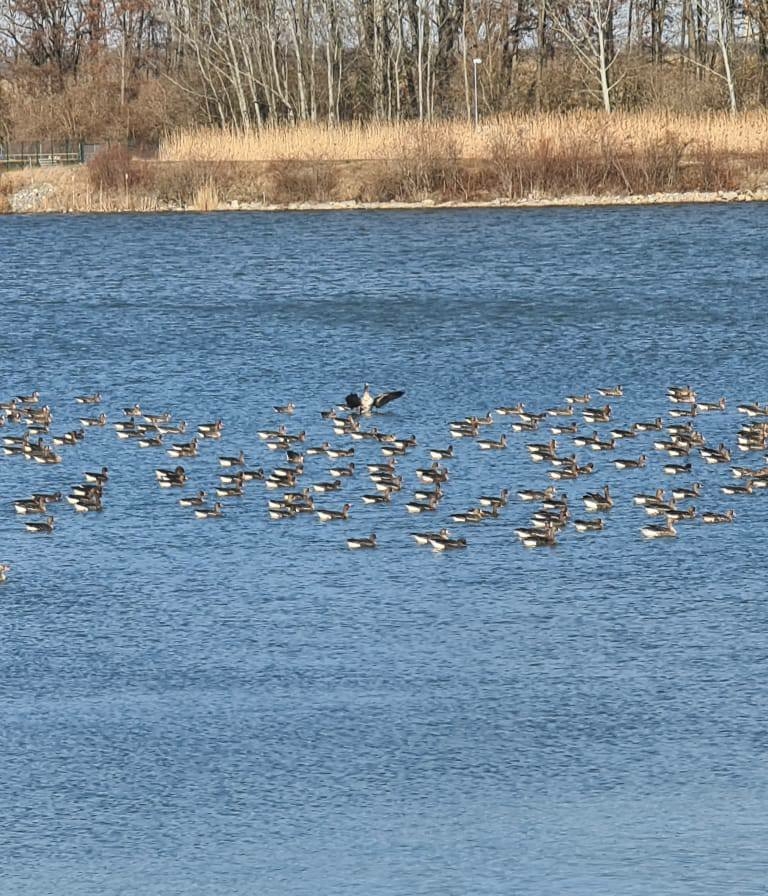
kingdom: Animalia
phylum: Chordata
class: Aves
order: Anseriformes
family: Anatidae
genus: Anser
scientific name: Anser albifrons
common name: Greater white-fronted goose
